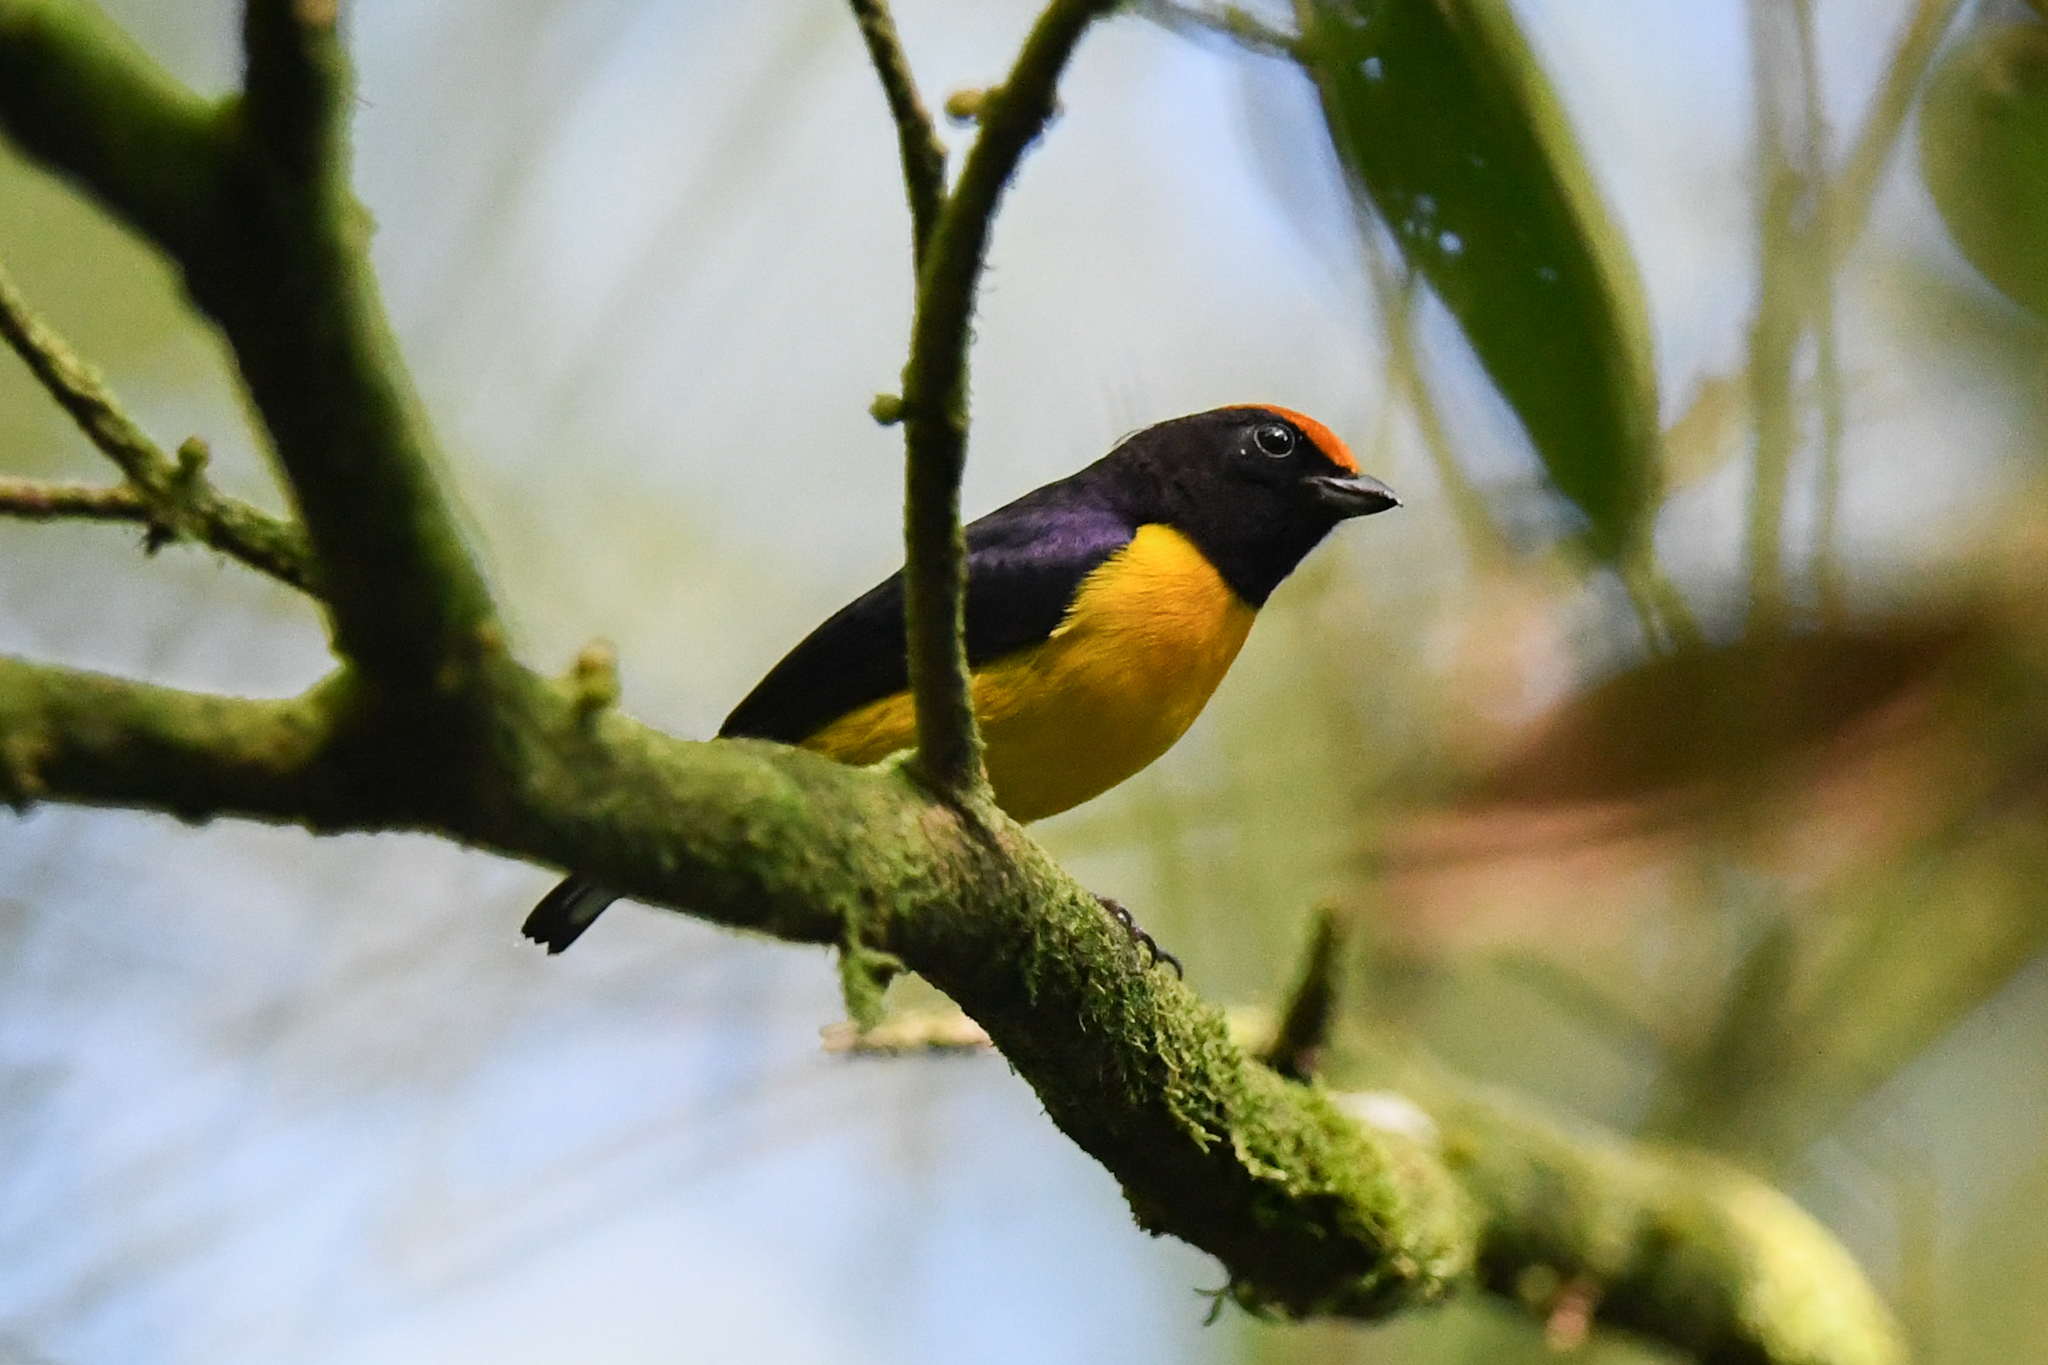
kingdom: Animalia
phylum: Chordata
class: Aves
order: Passeriformes
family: Fringillidae
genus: Euphonia
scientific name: Euphonia anneae
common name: Tawny-capped euphonia
